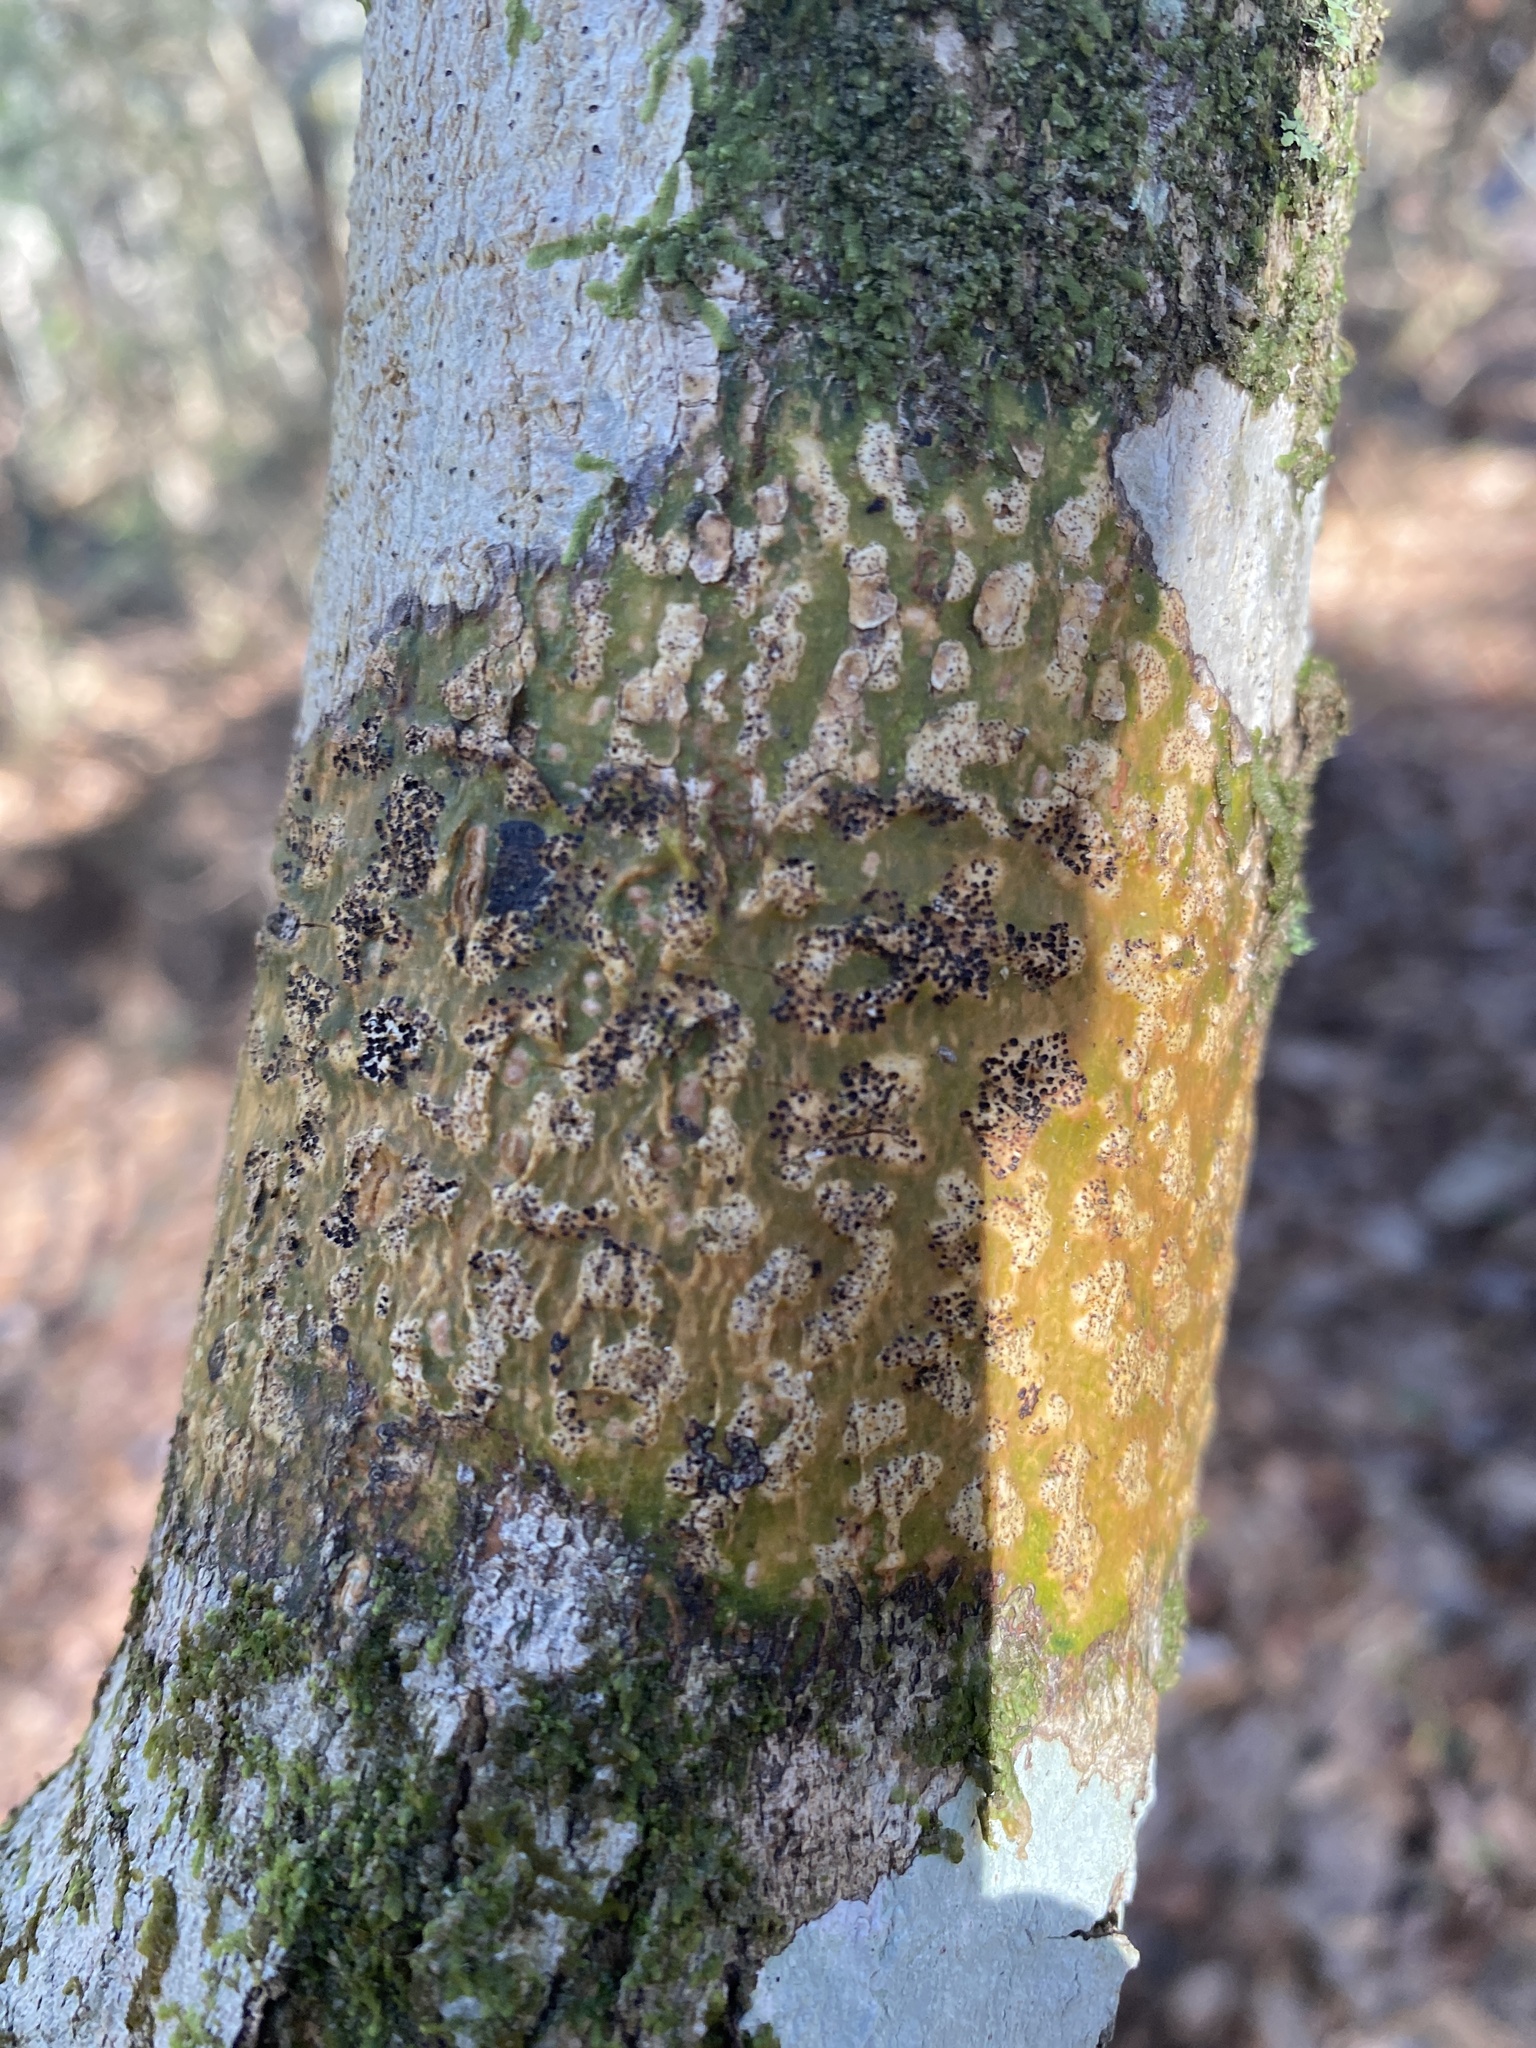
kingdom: Fungi
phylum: Ascomycota
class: Dothideomycetes
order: Trypetheliales
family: Trypetheliaceae
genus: Viridothelium
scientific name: Viridothelium virens
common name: Speckled blister lichen
